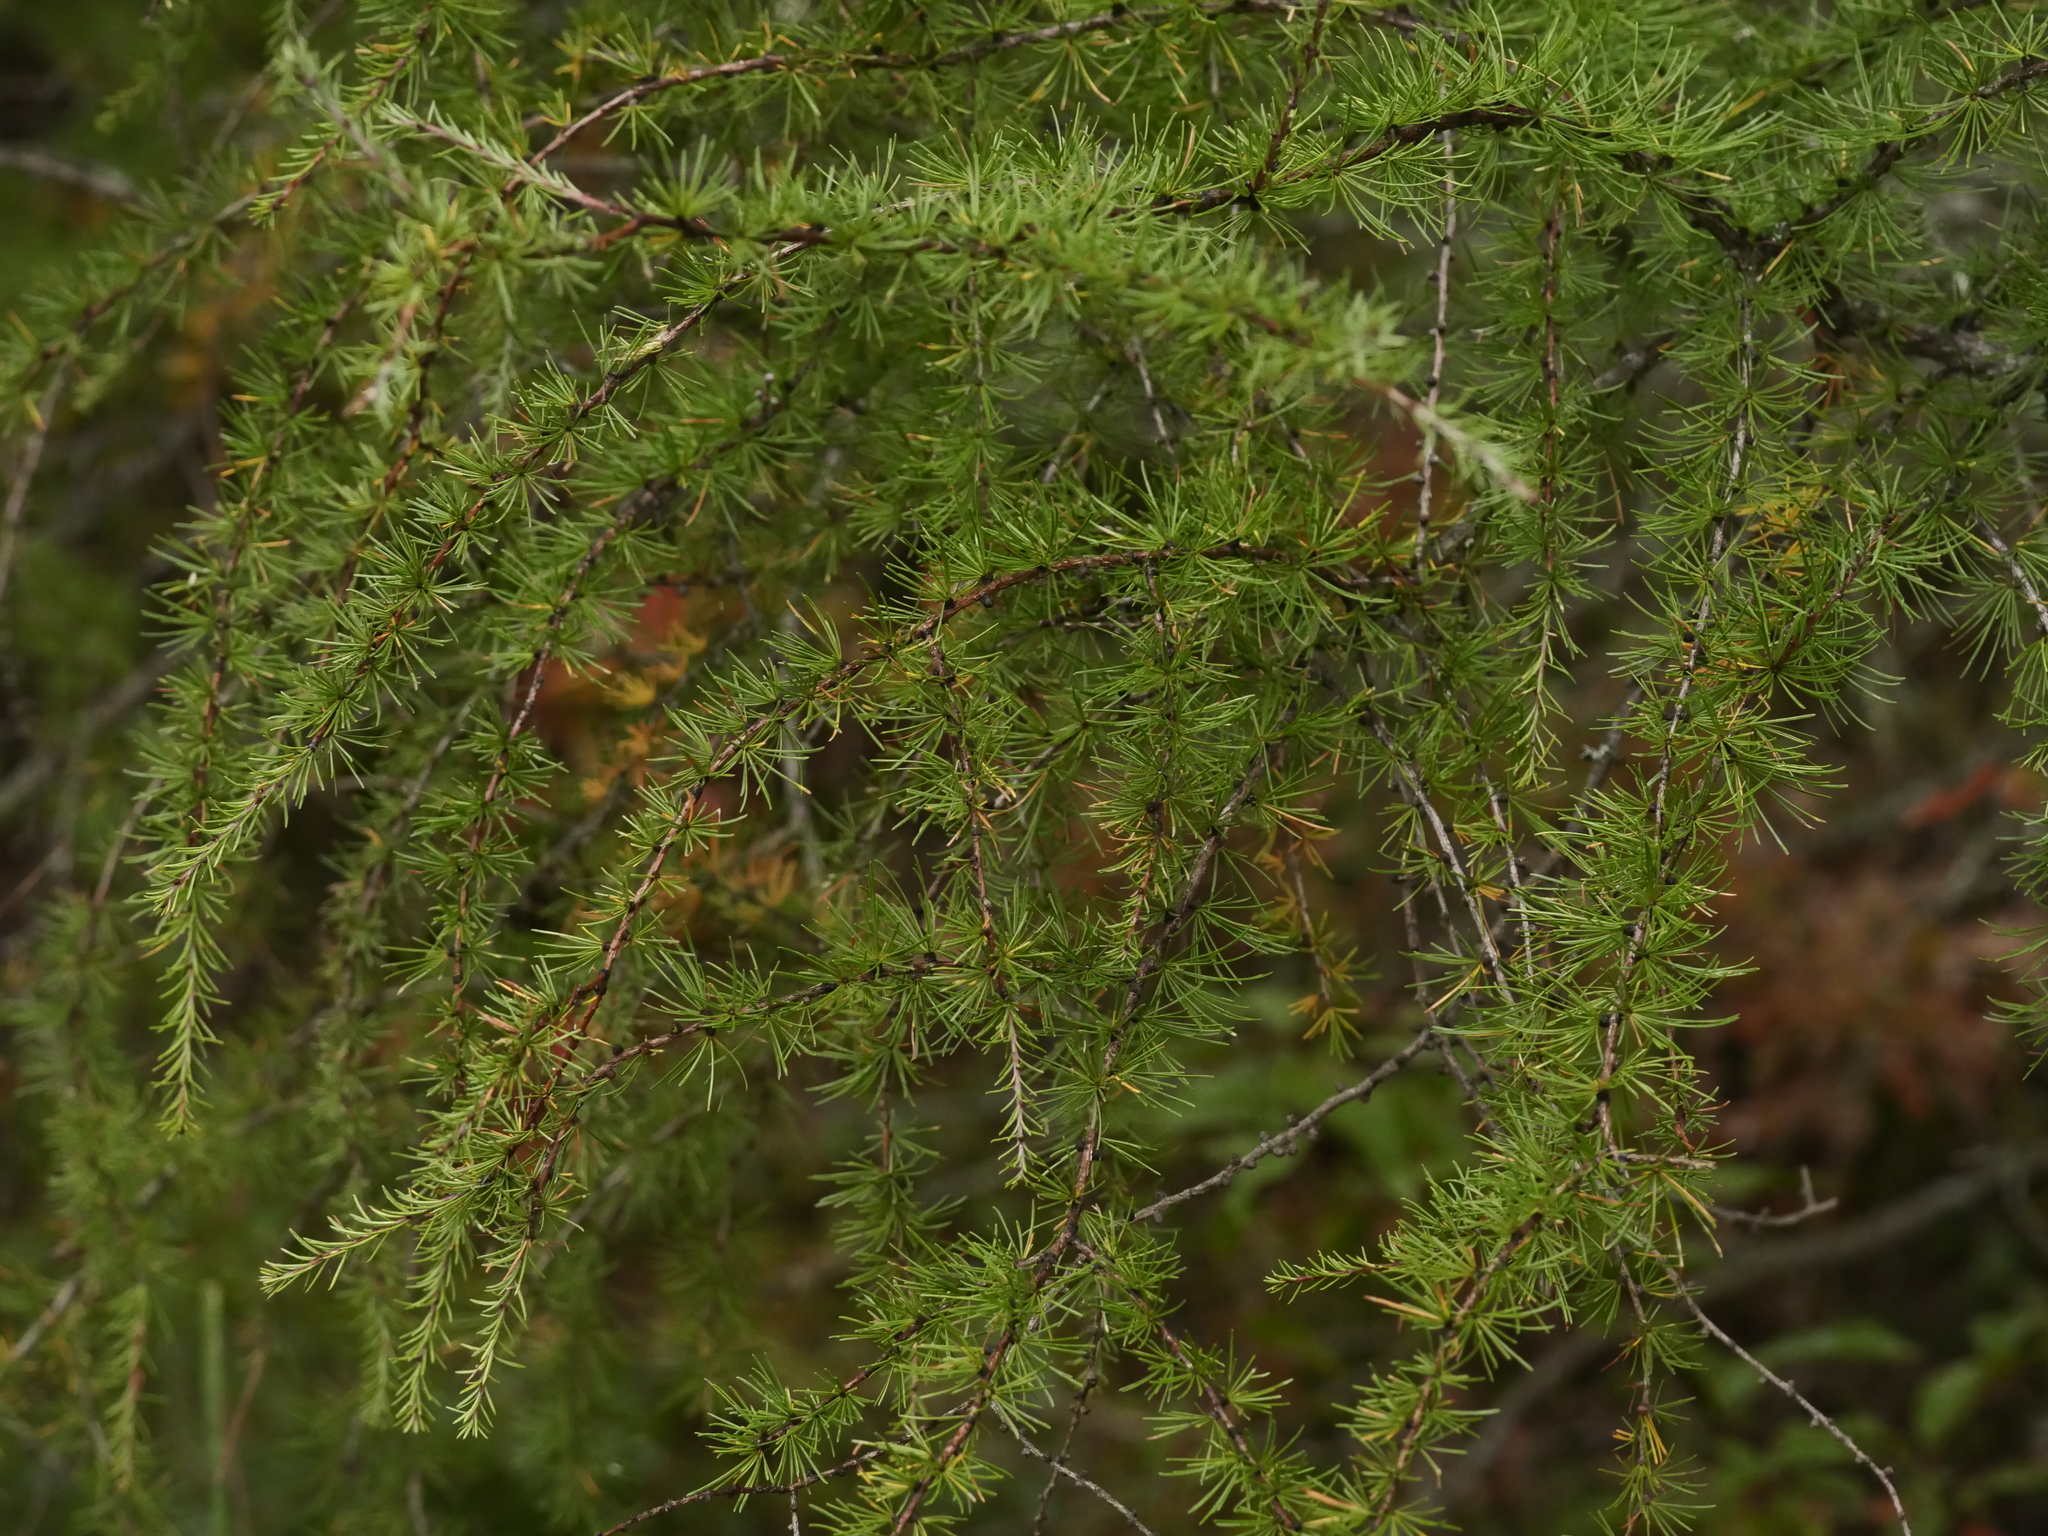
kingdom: Plantae
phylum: Tracheophyta
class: Pinopsida
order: Pinales
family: Pinaceae
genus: Larix
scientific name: Larix laricina
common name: American larch
